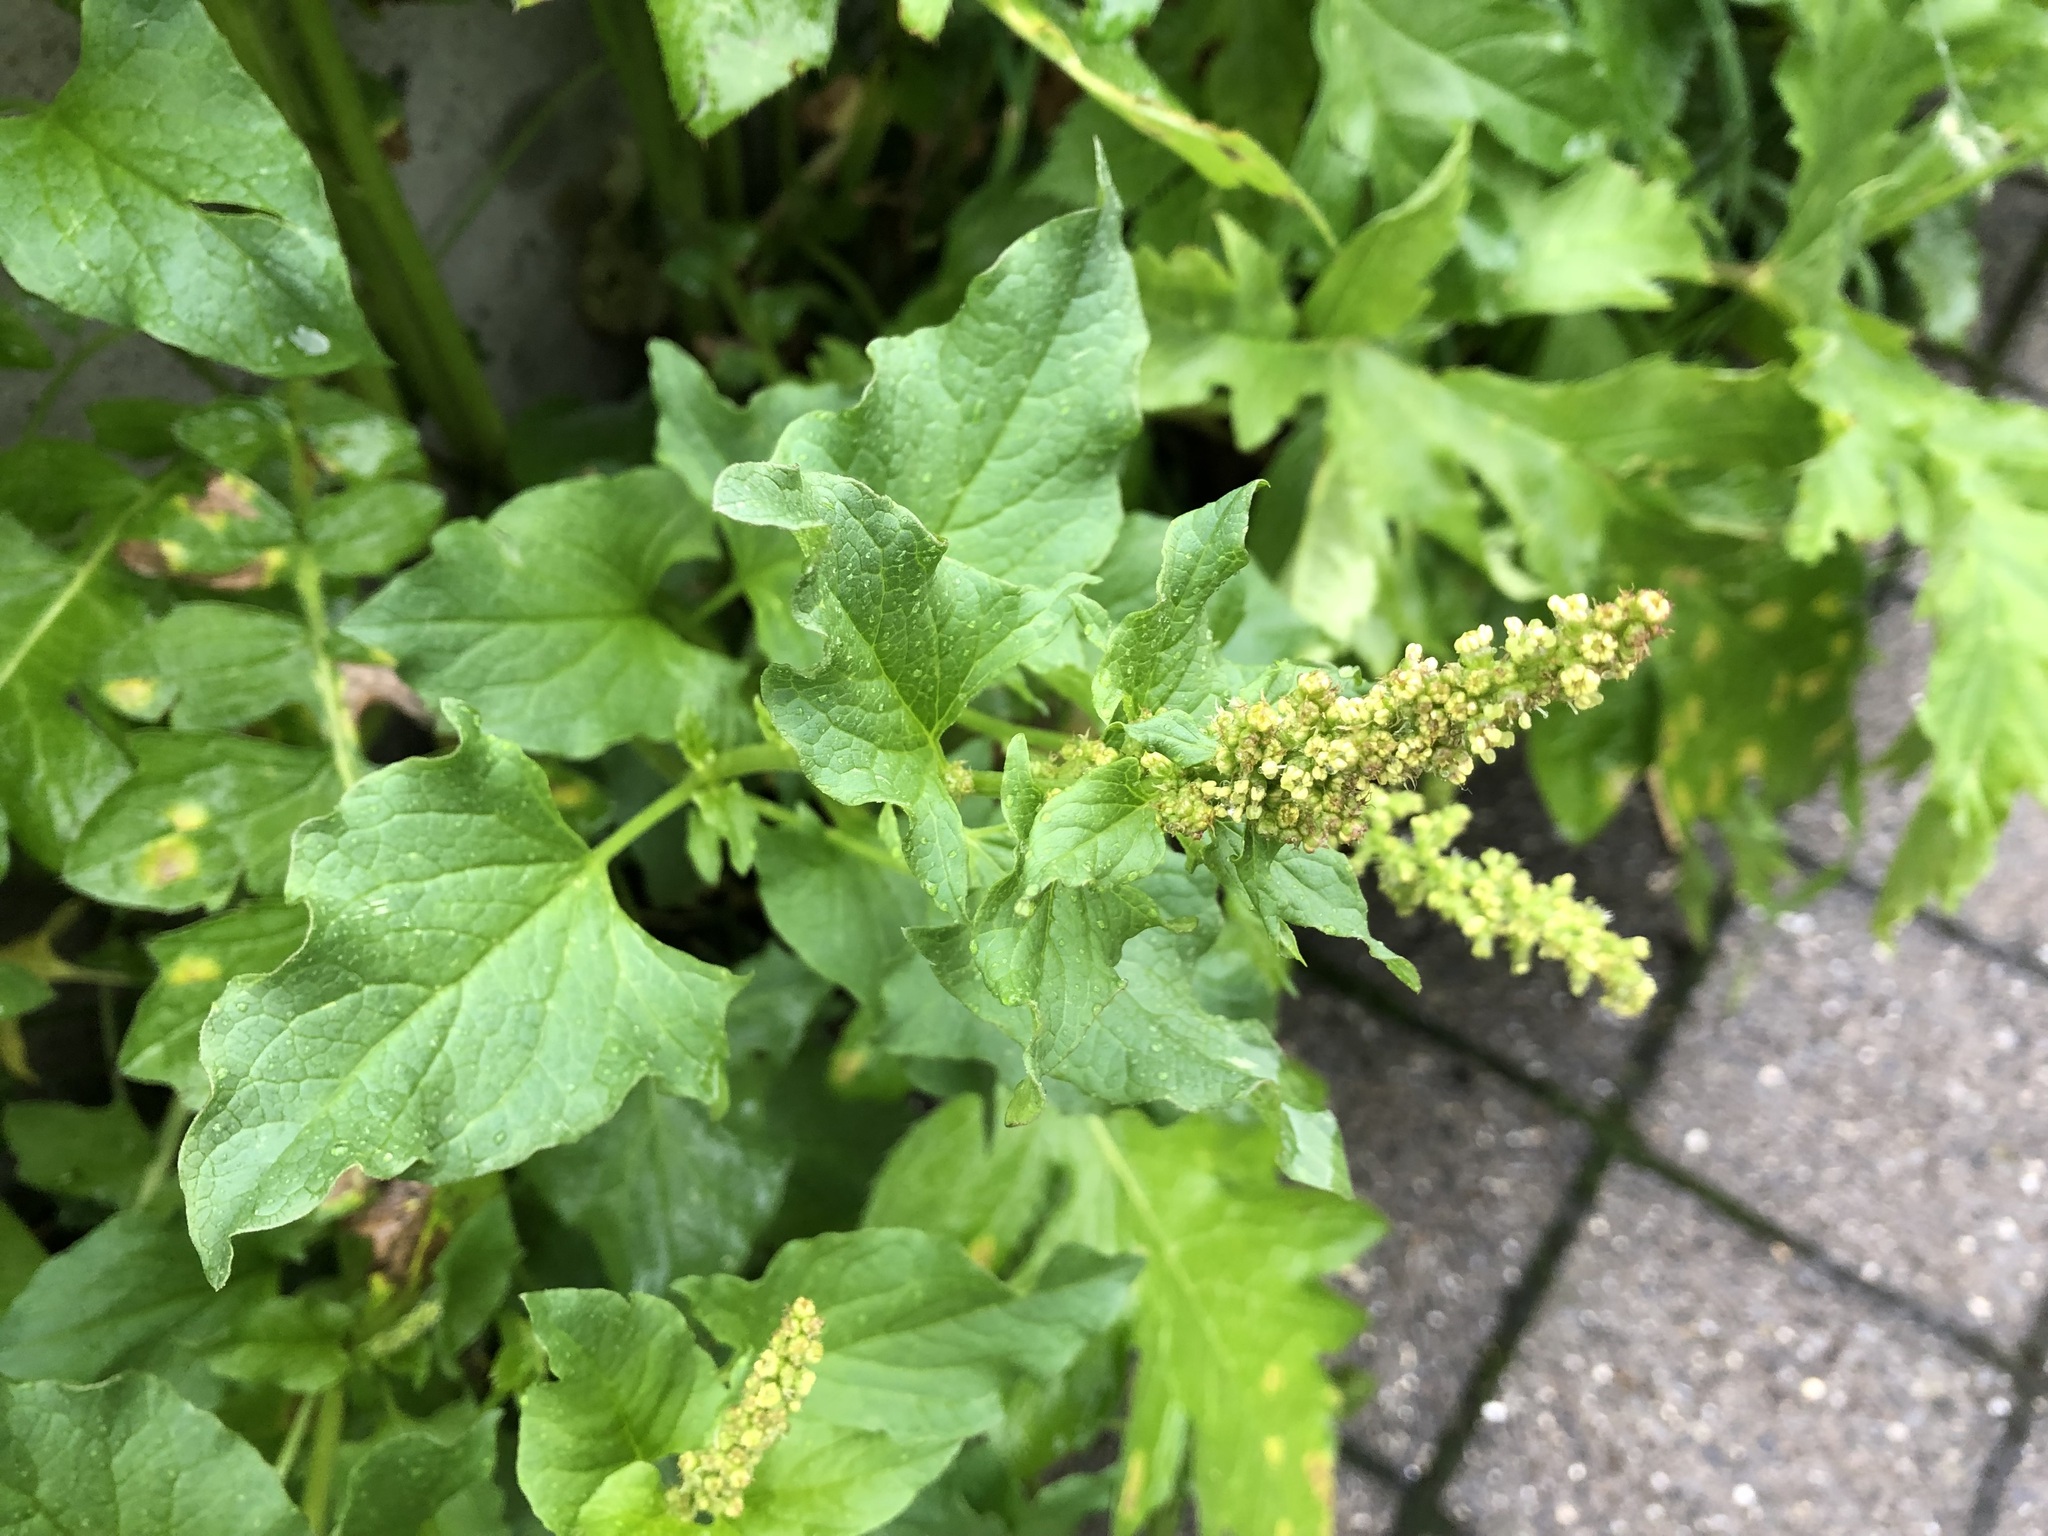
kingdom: Plantae
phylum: Tracheophyta
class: Magnoliopsida
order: Caryophyllales
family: Amaranthaceae
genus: Blitum
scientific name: Blitum bonus-henricus
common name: Good king henry
